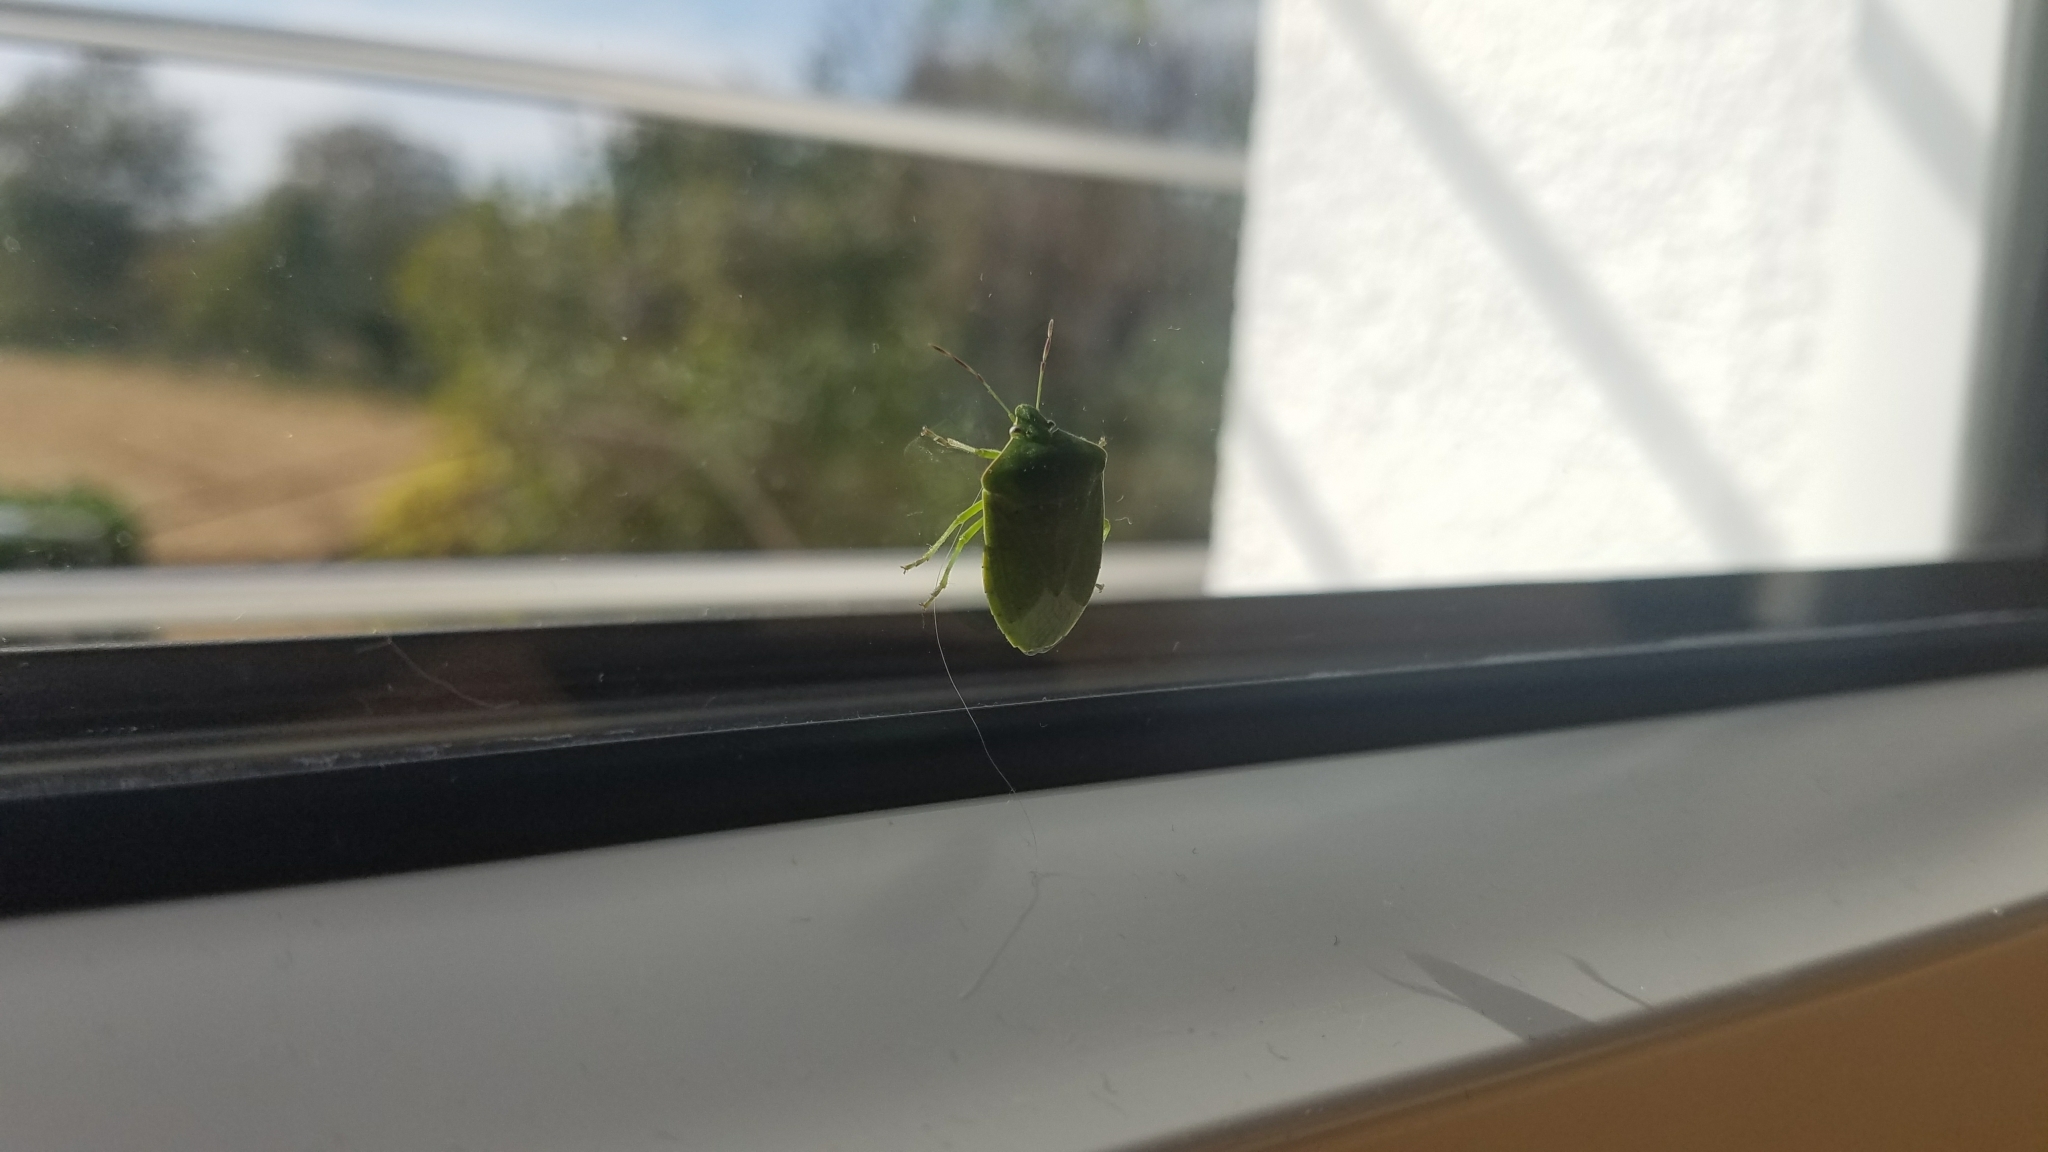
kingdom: Animalia
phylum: Arthropoda
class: Insecta
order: Hemiptera
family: Pentatomidae
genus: Nezara
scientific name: Nezara viridula
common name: Southern green stink bug
